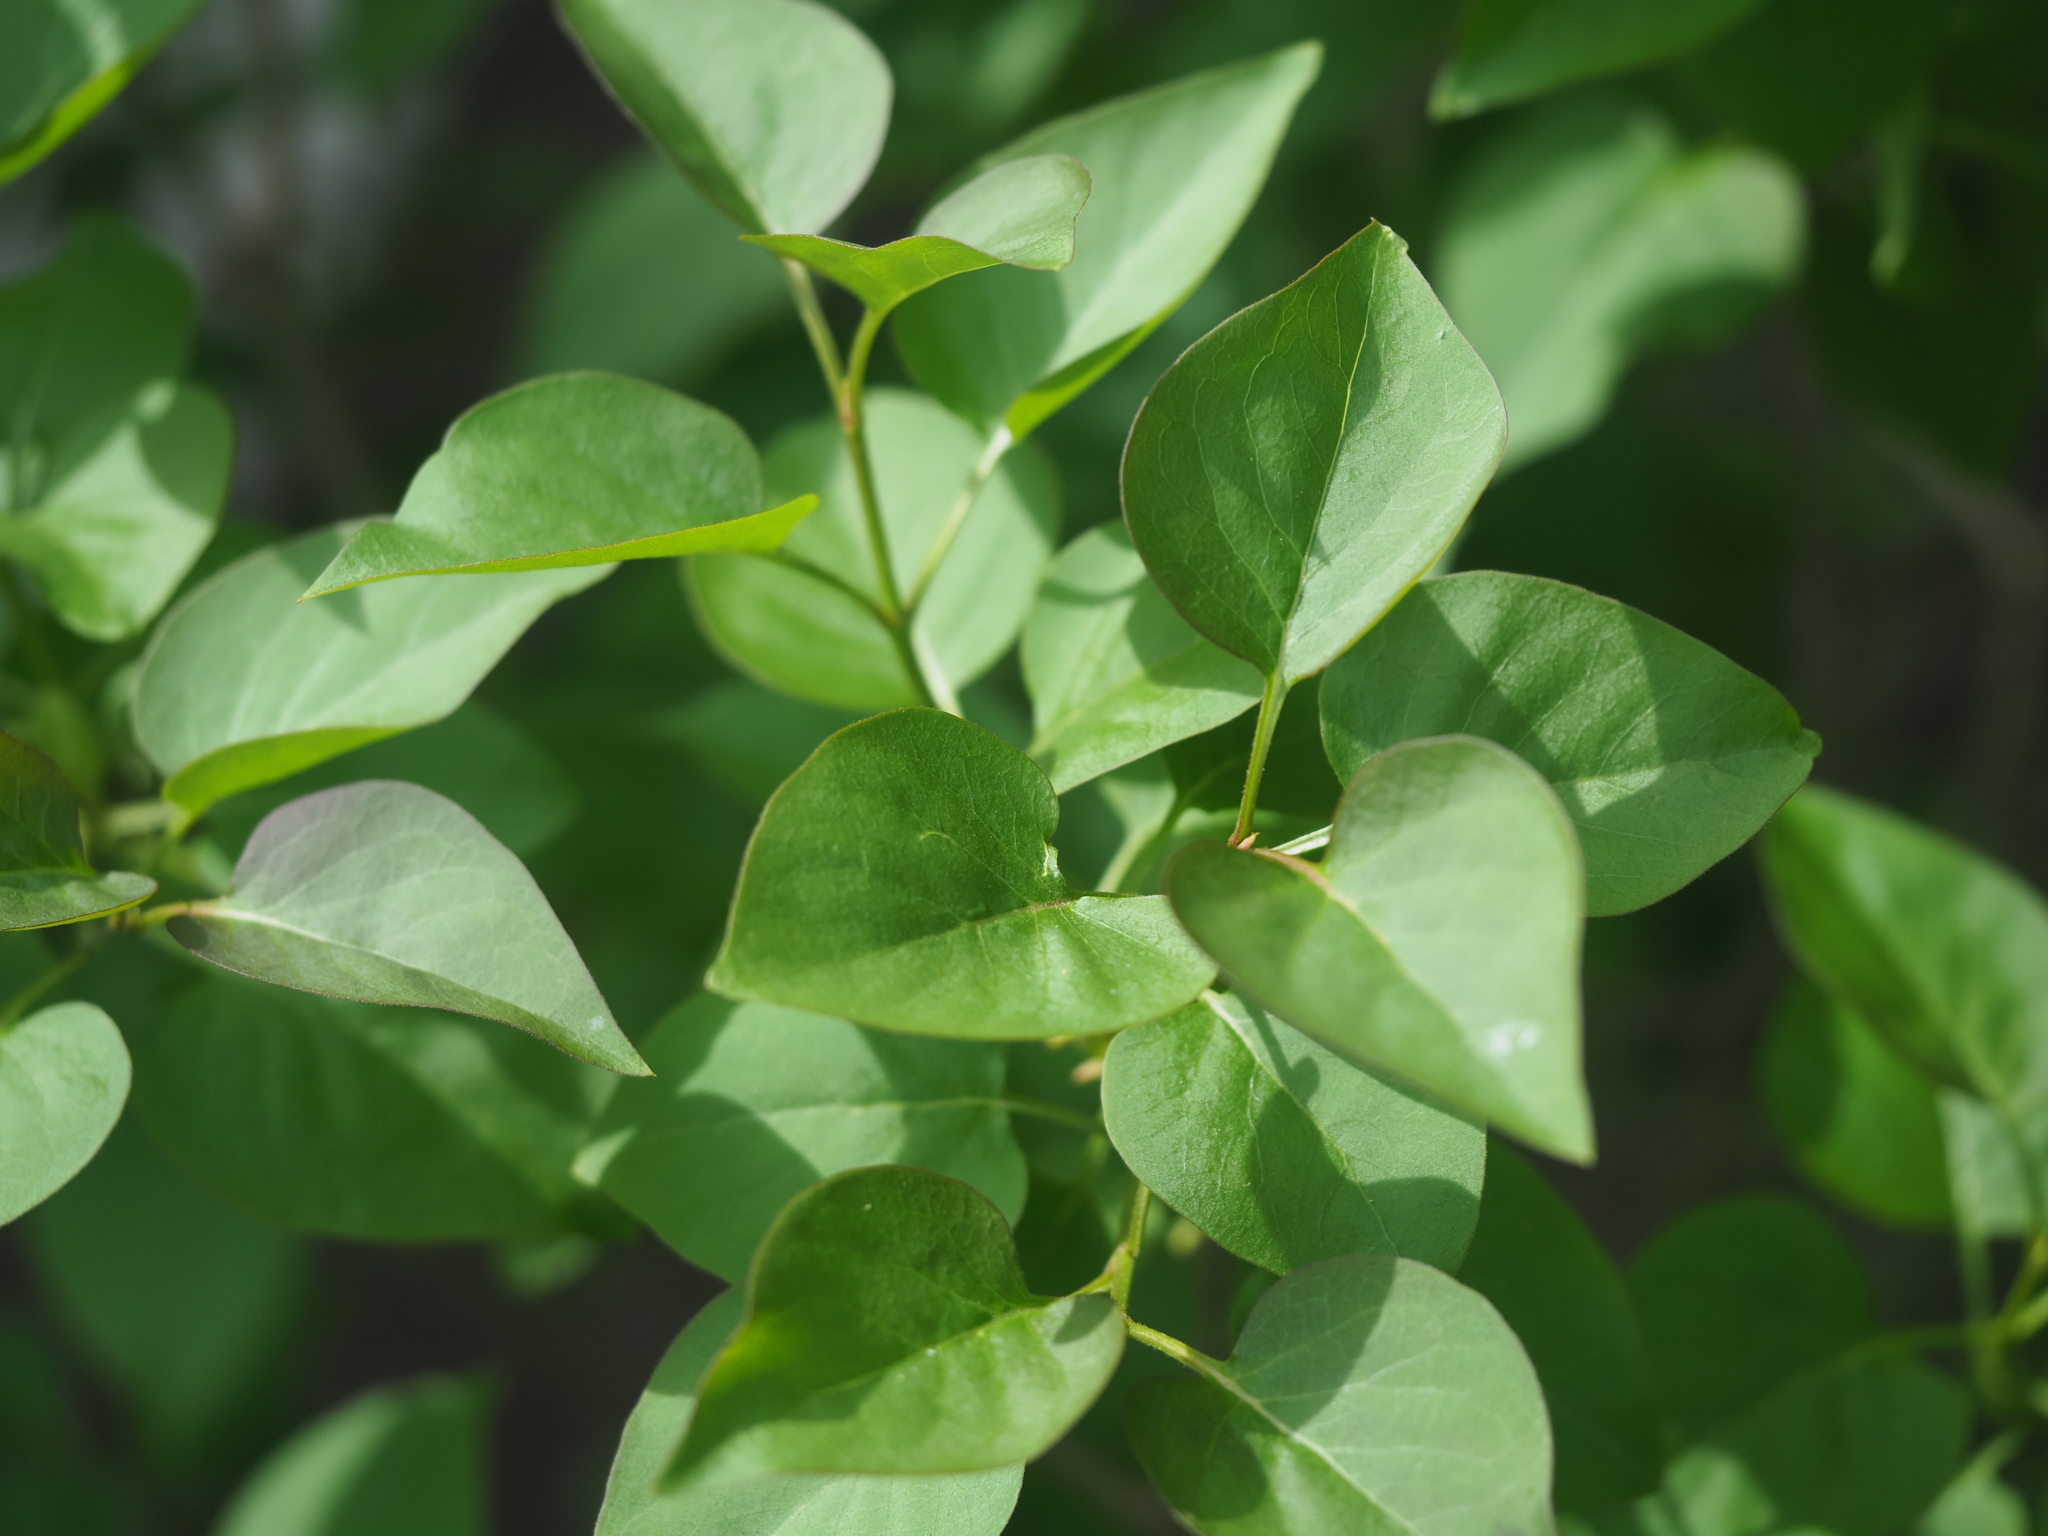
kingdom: Plantae
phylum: Tracheophyta
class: Magnoliopsida
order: Lamiales
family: Oleaceae
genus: Syringa
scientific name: Syringa vulgaris
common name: Common lilac
